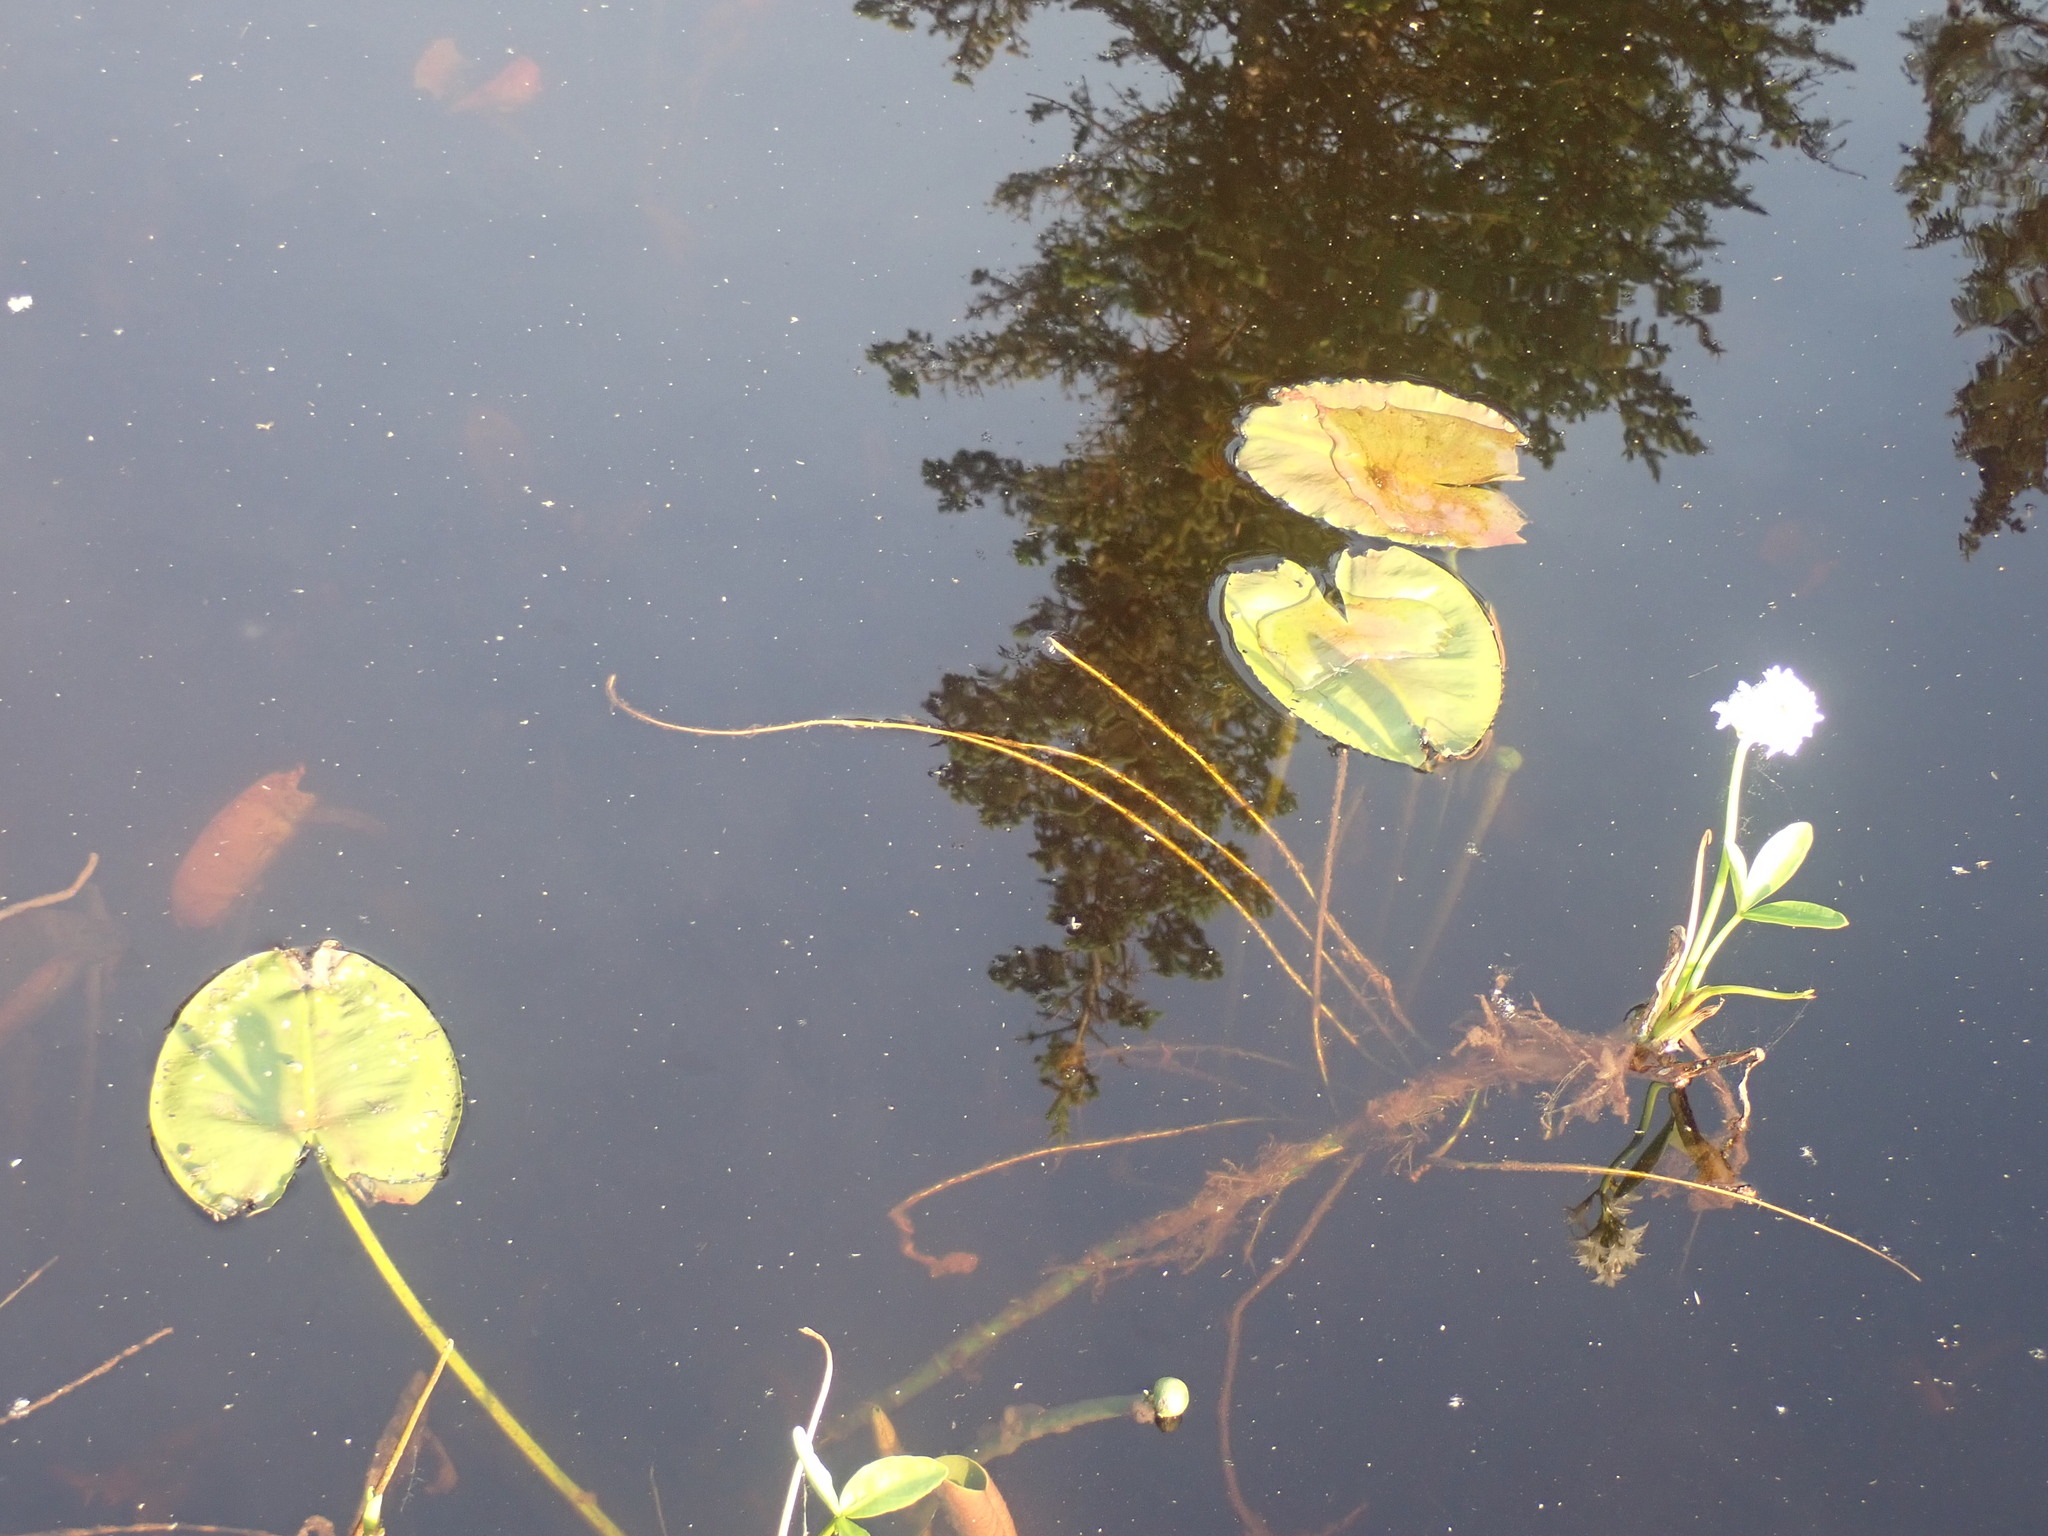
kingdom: Plantae
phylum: Tracheophyta
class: Magnoliopsida
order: Nymphaeales
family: Nymphaeaceae
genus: Nuphar
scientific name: Nuphar polysepala
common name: Rocky mountain cow-lily
